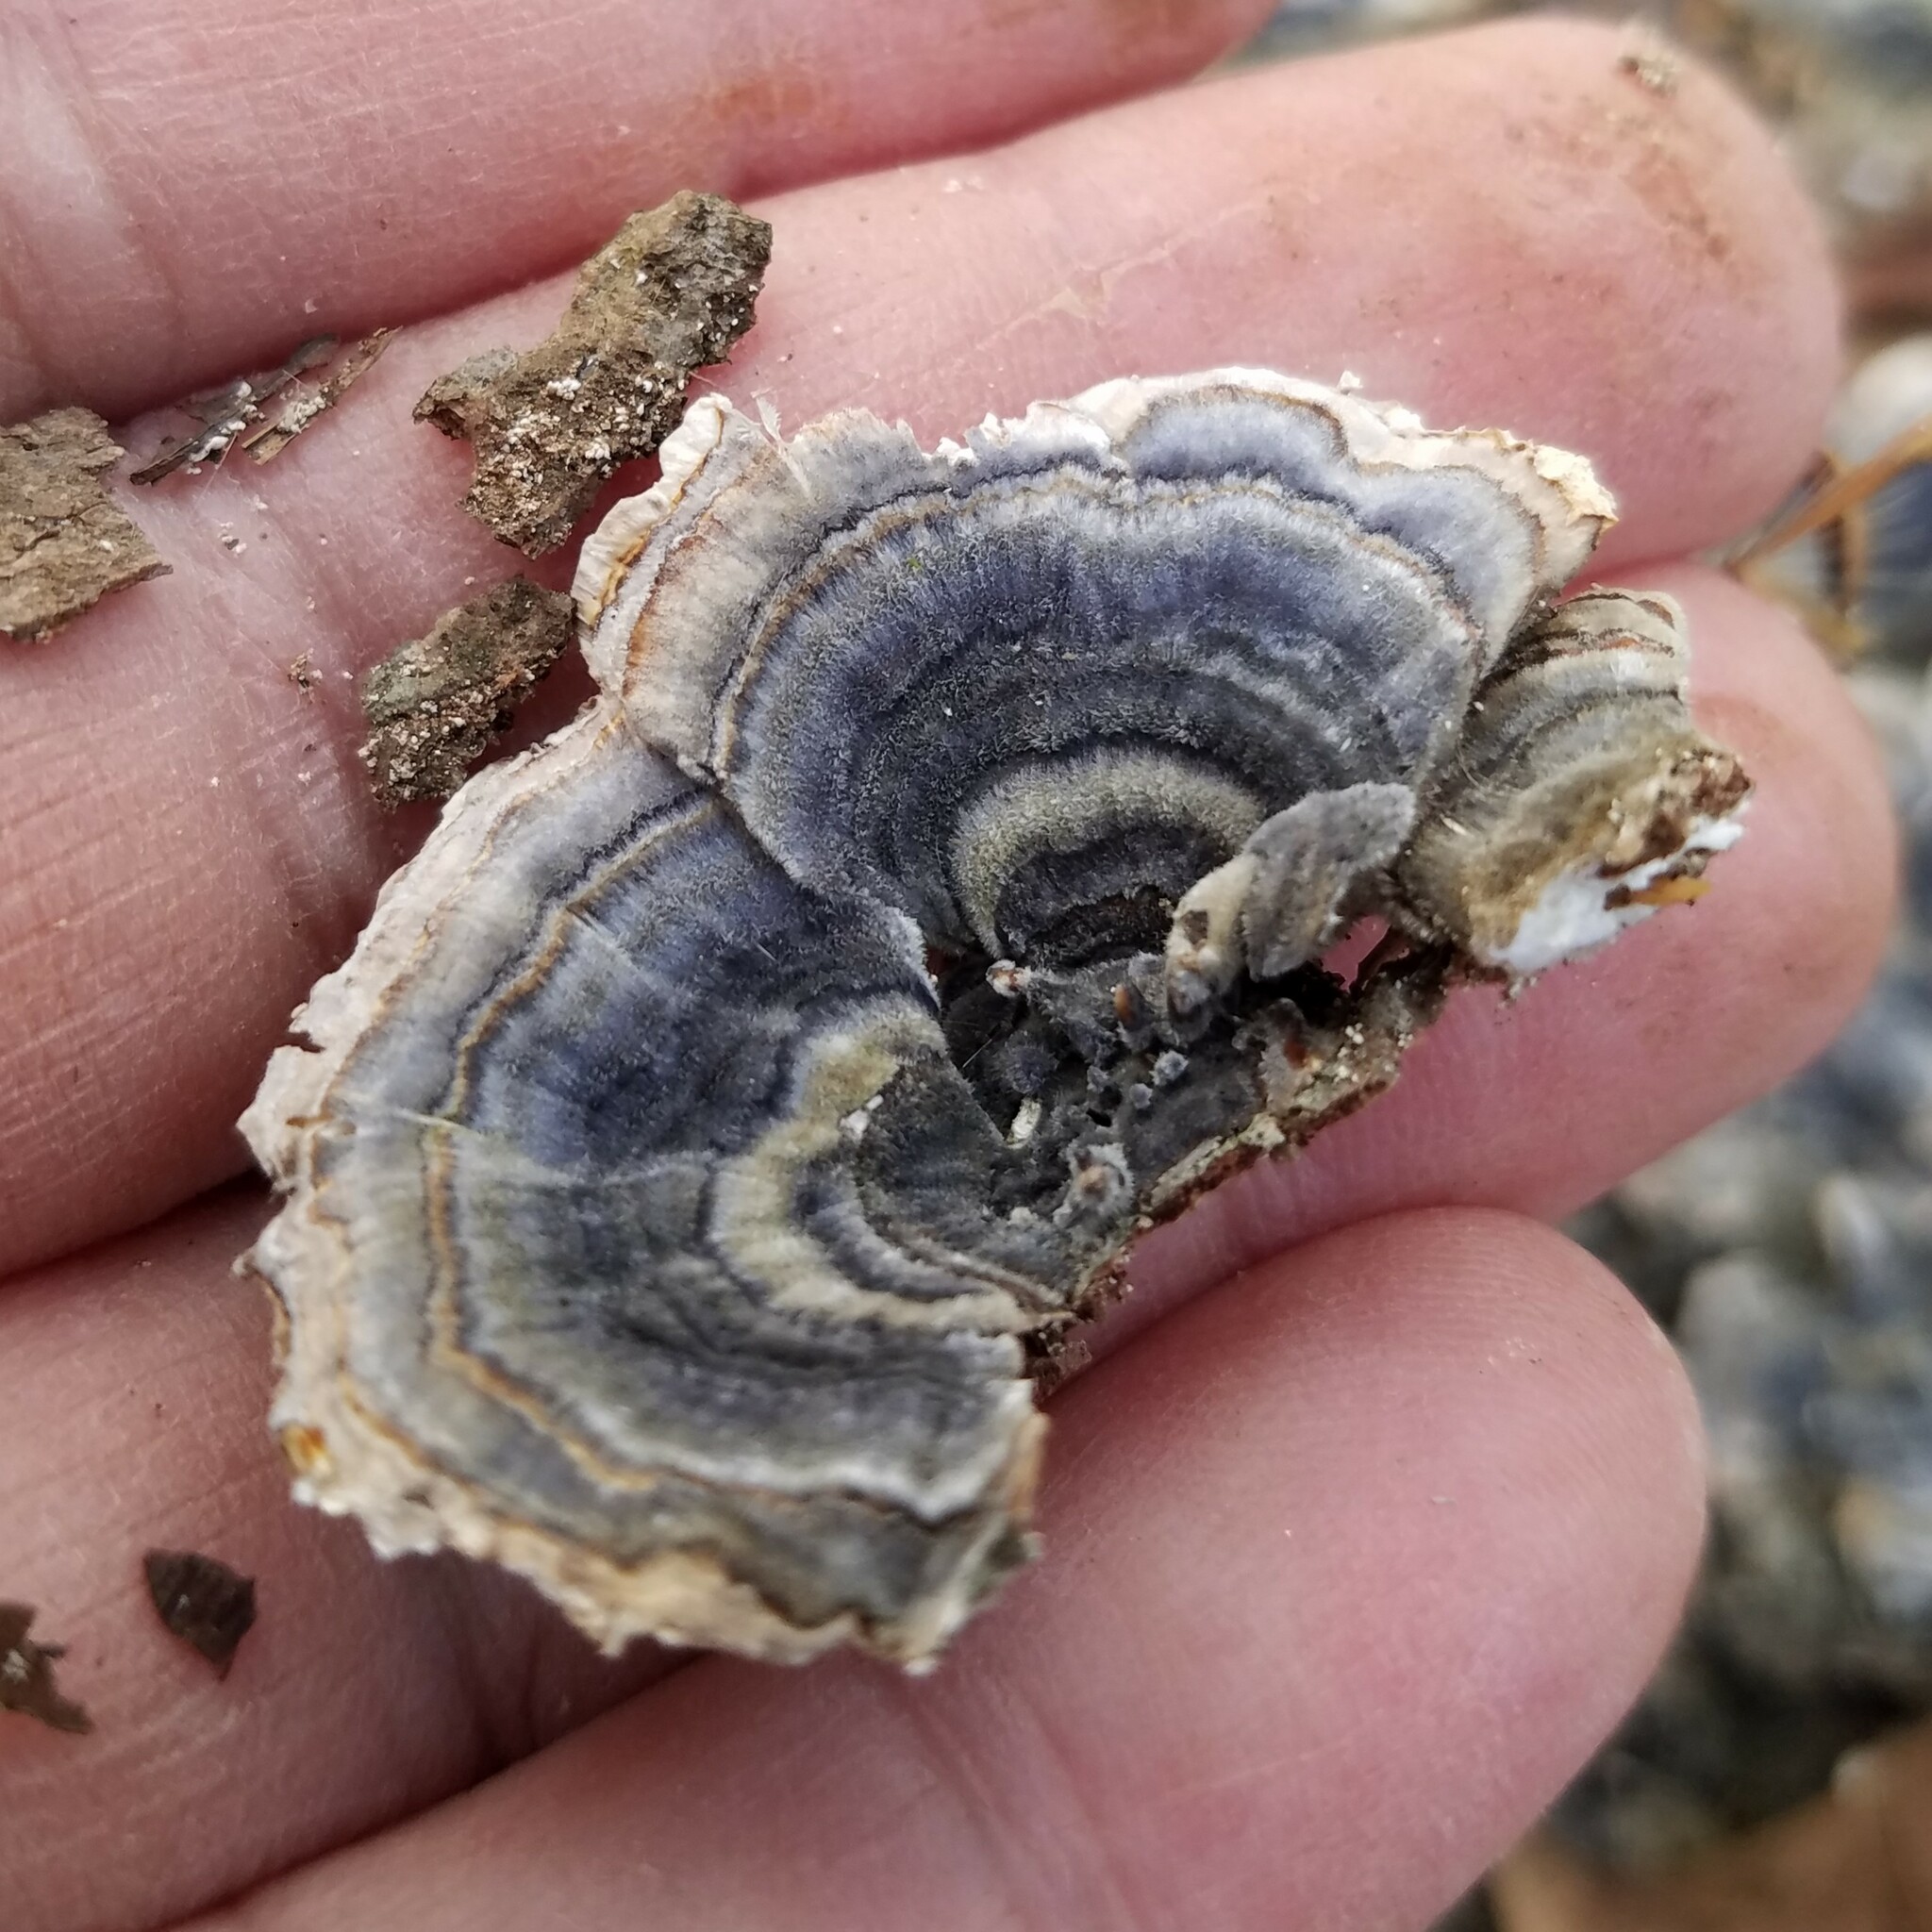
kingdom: Fungi
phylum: Basidiomycota
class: Agaricomycetes
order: Polyporales
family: Polyporaceae
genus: Trametes
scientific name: Trametes versicolor
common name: Turkeytail
